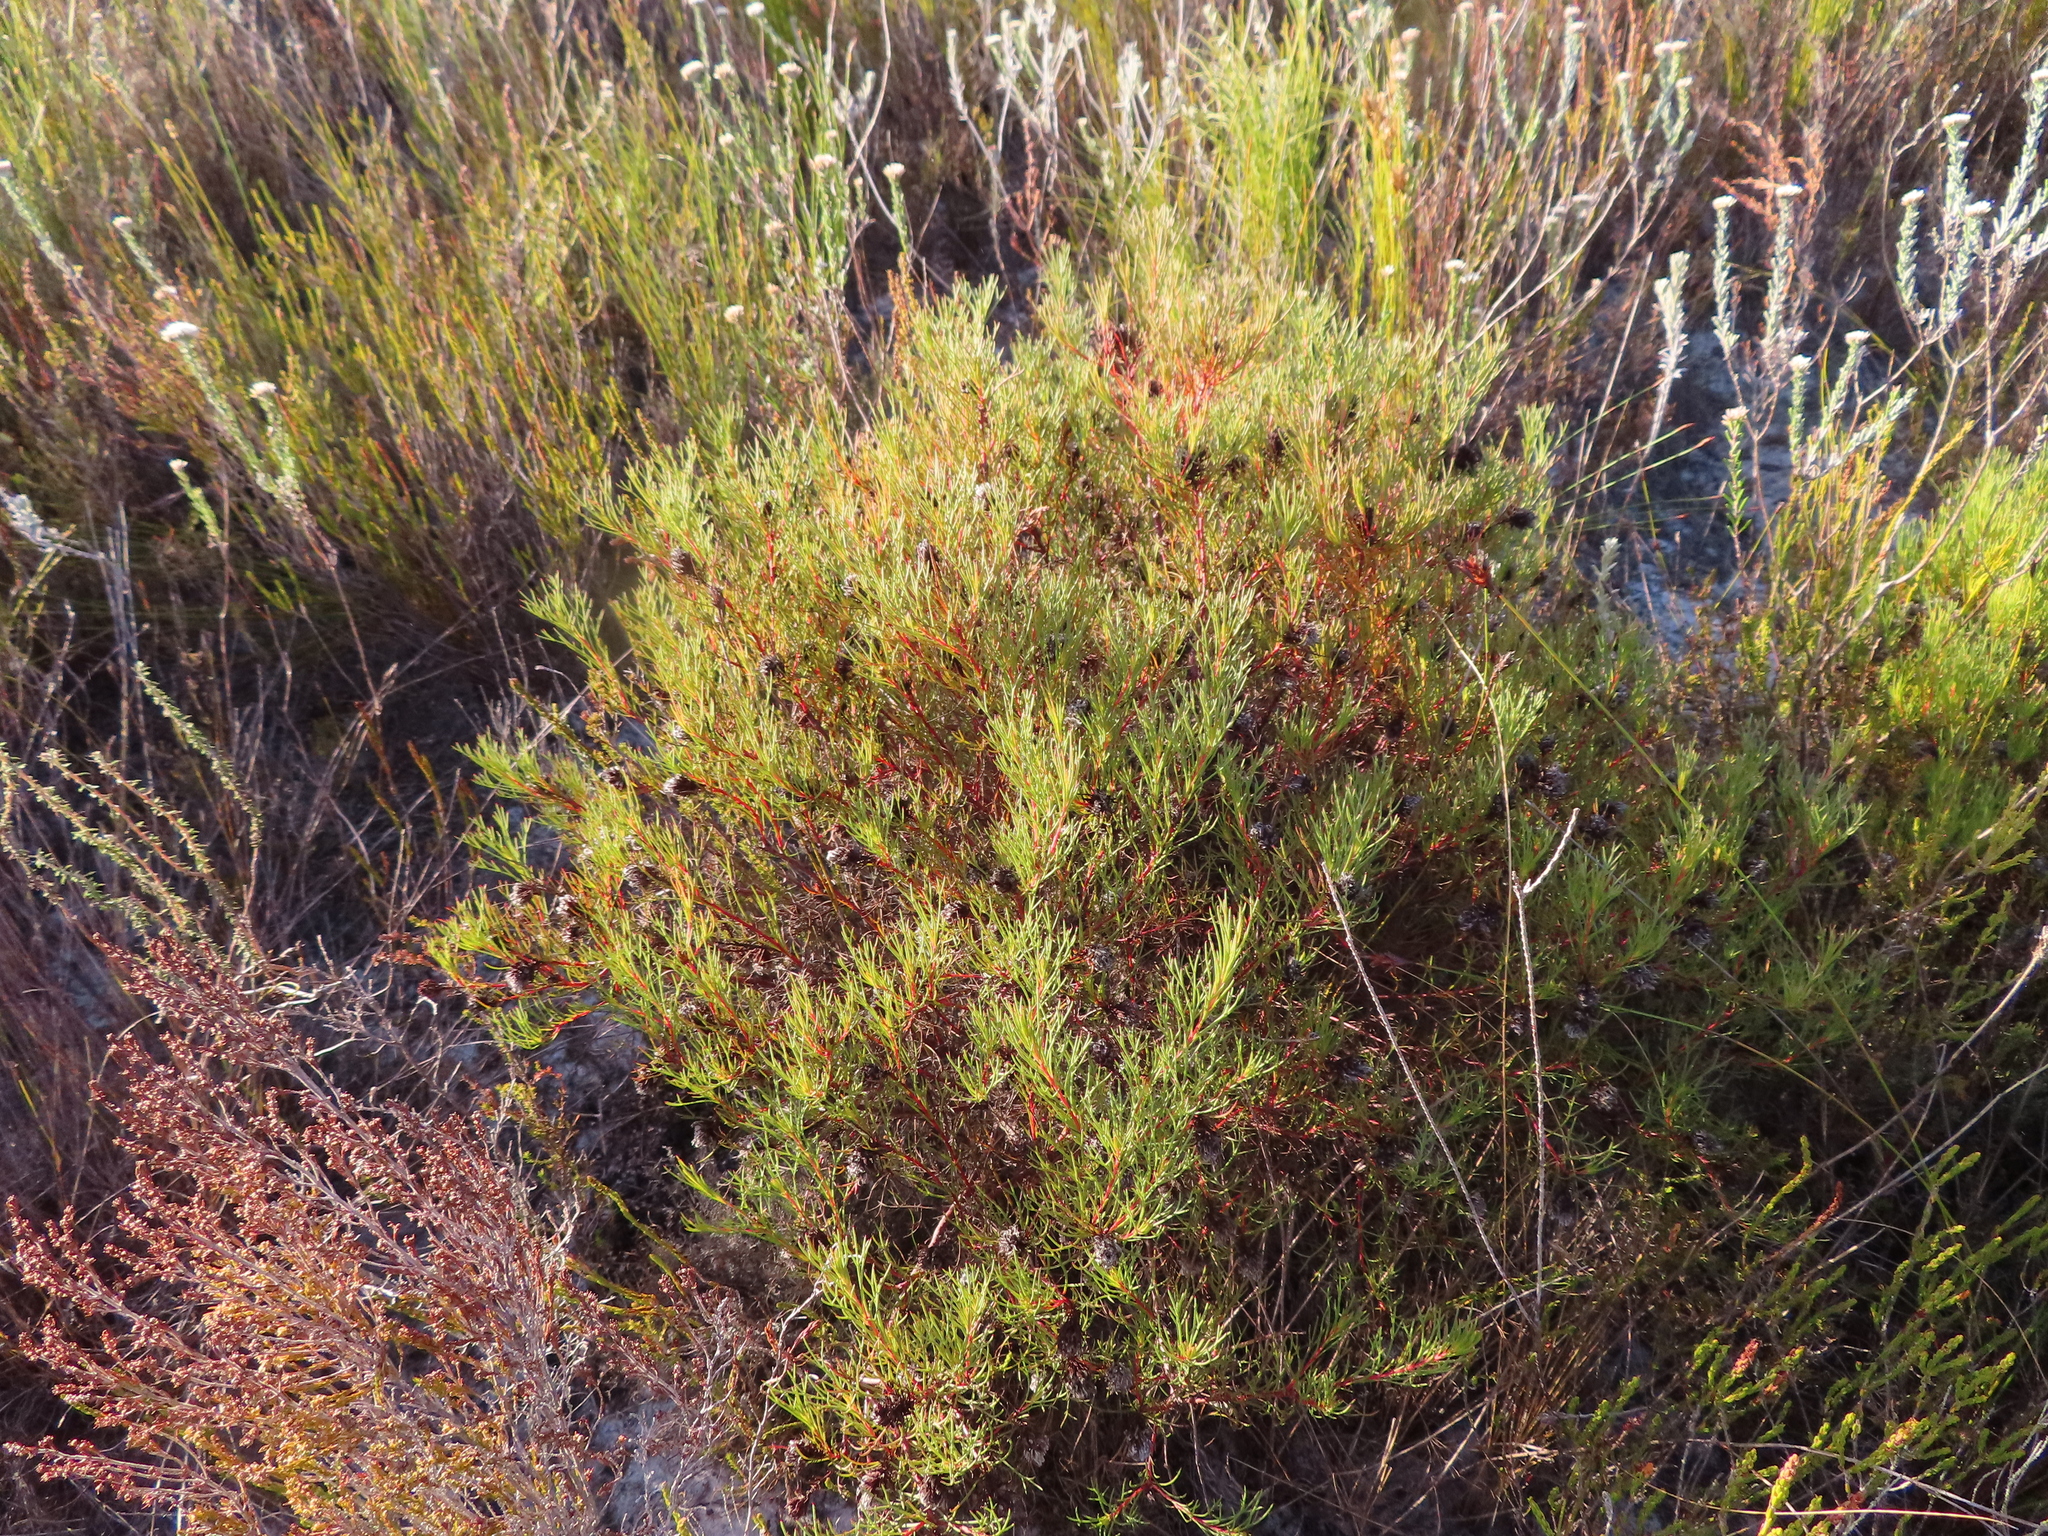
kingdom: Plantae
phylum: Tracheophyta
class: Magnoliopsida
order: Proteales
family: Proteaceae
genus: Serruria
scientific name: Serruria nervosa
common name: Fluted spiderhead
